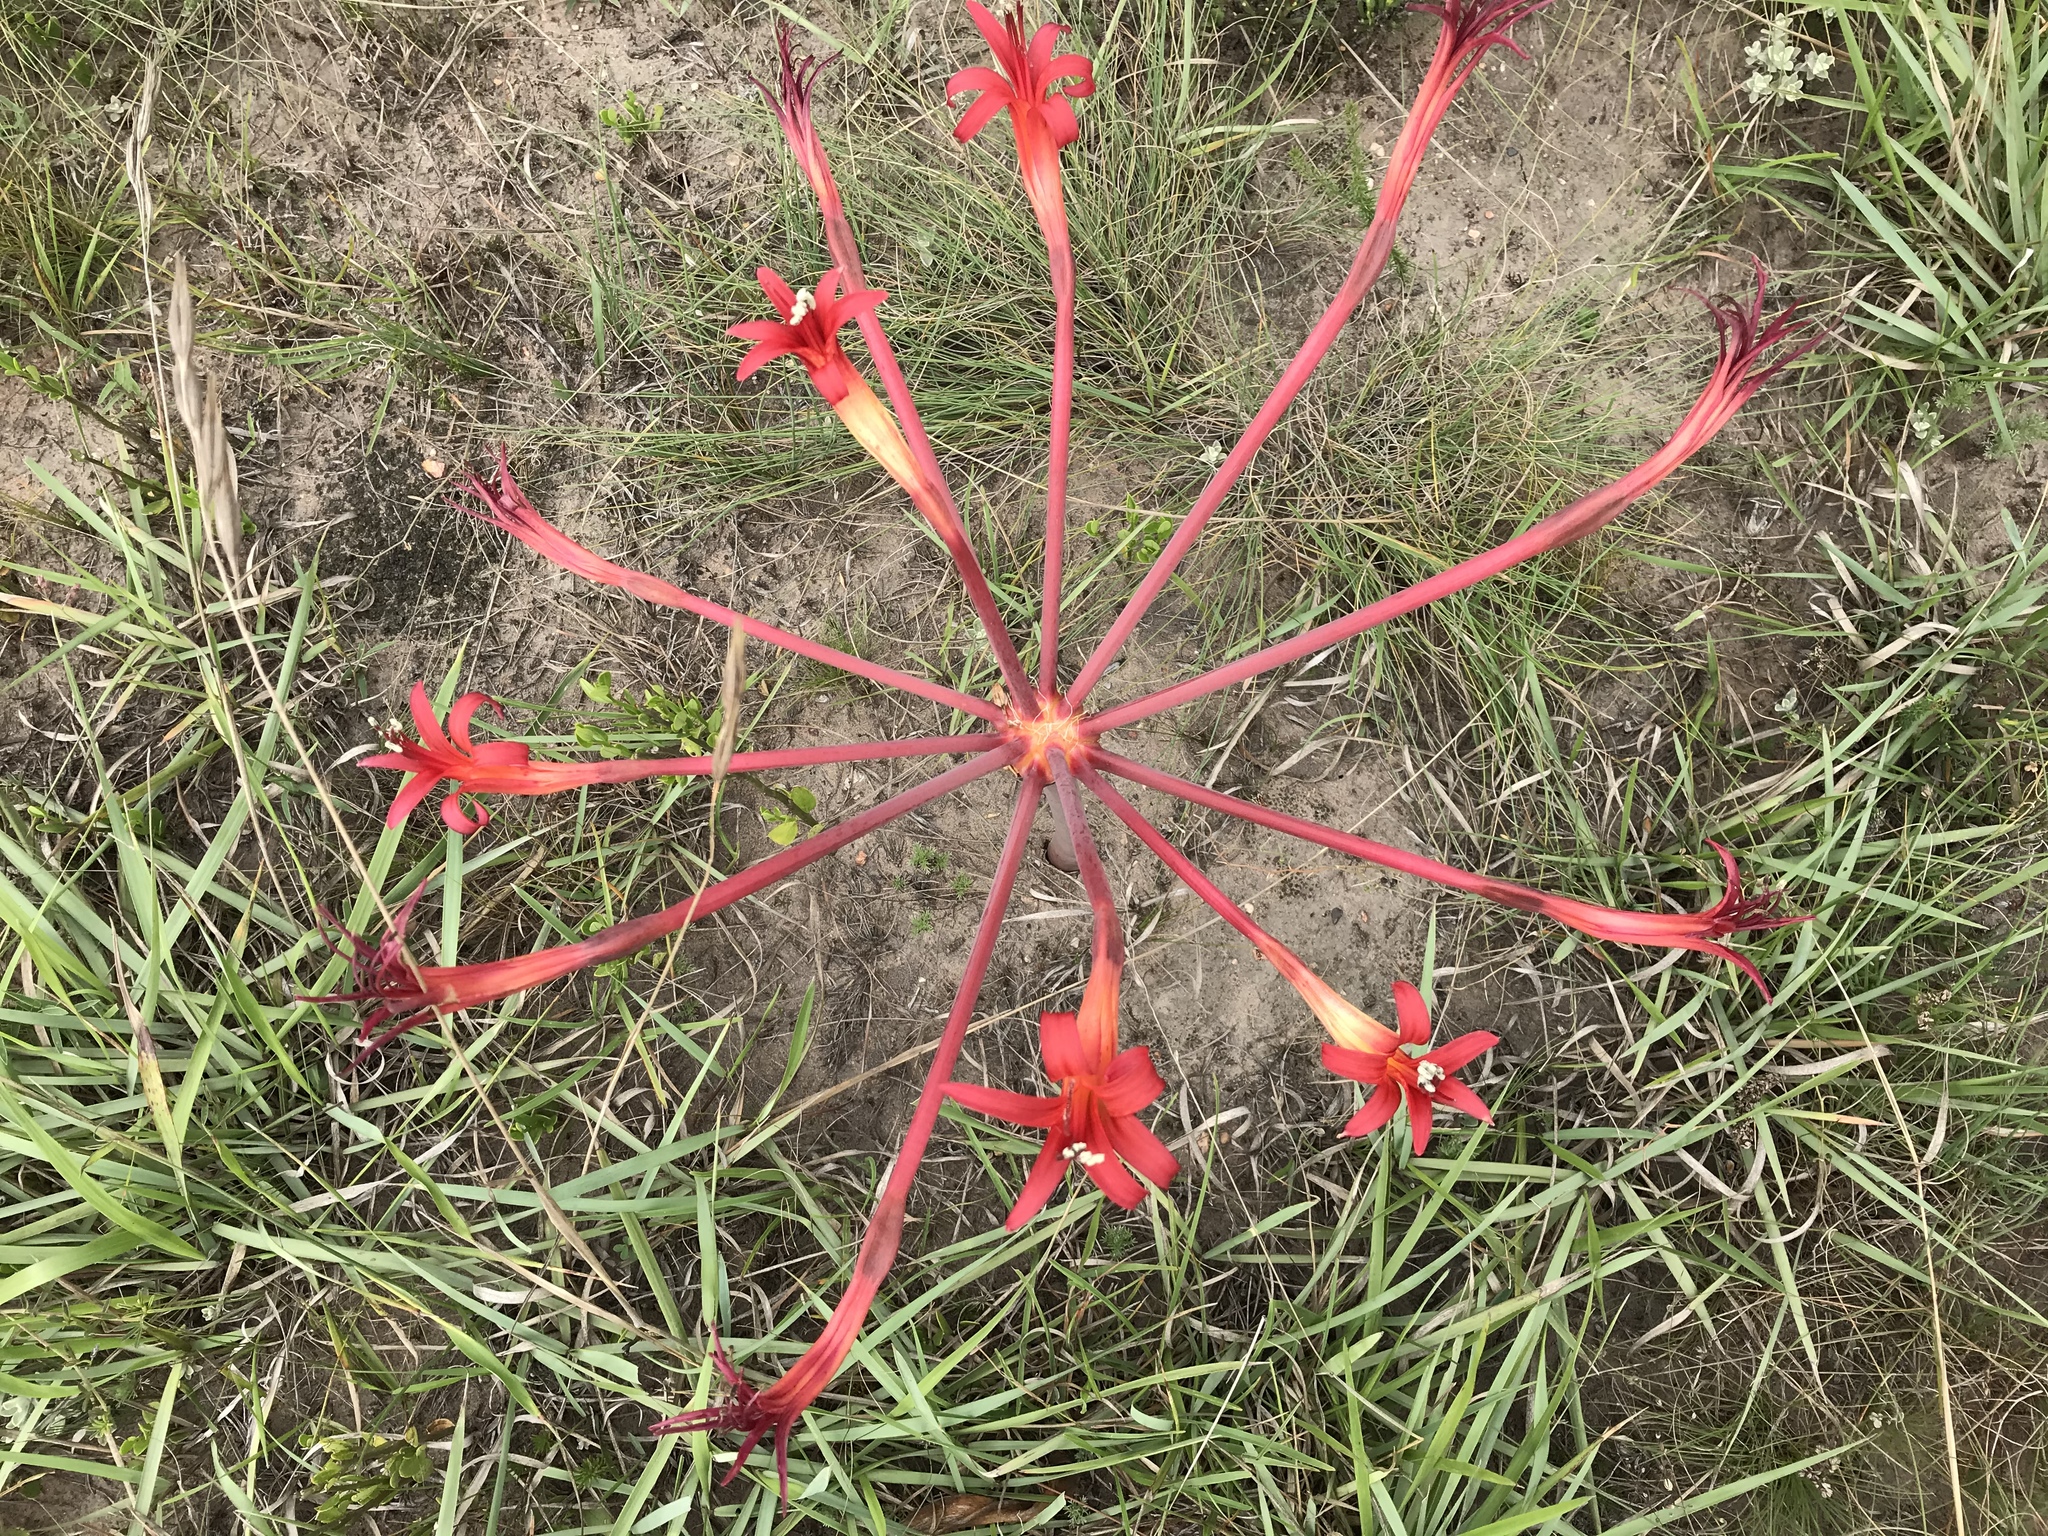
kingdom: Plantae
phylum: Tracheophyta
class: Liliopsida
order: Asparagales
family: Amaryllidaceae
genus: Brunsvigia
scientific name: Brunsvigia litoralis
